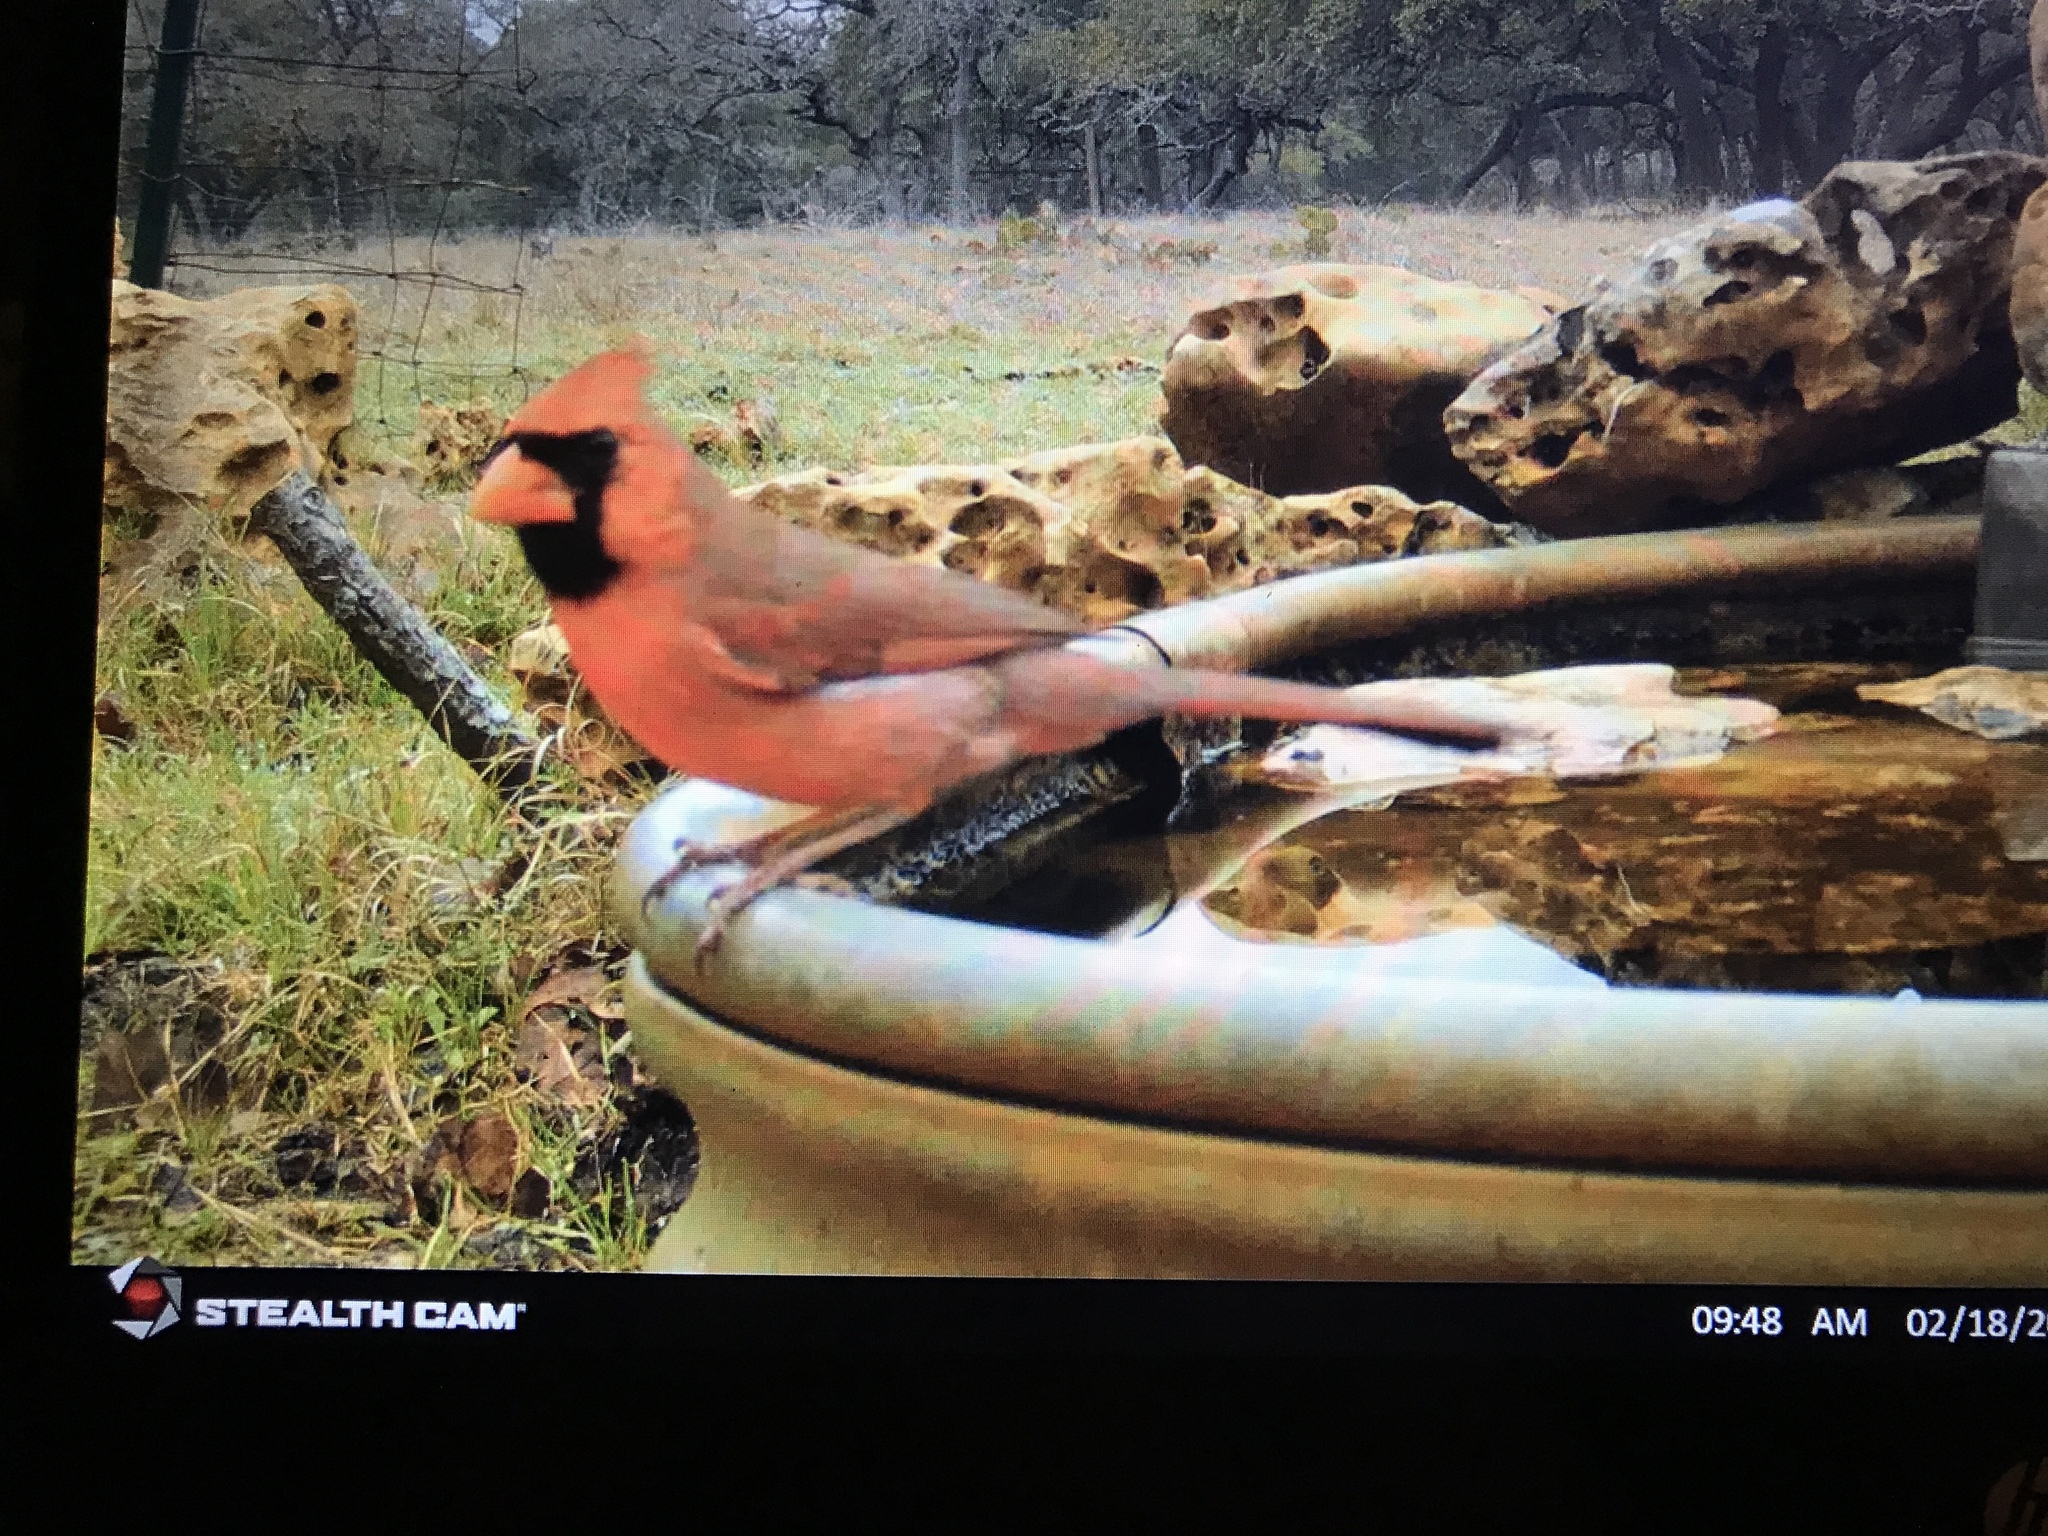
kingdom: Animalia
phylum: Chordata
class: Aves
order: Passeriformes
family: Cardinalidae
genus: Cardinalis
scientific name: Cardinalis cardinalis
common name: Northern cardinal
